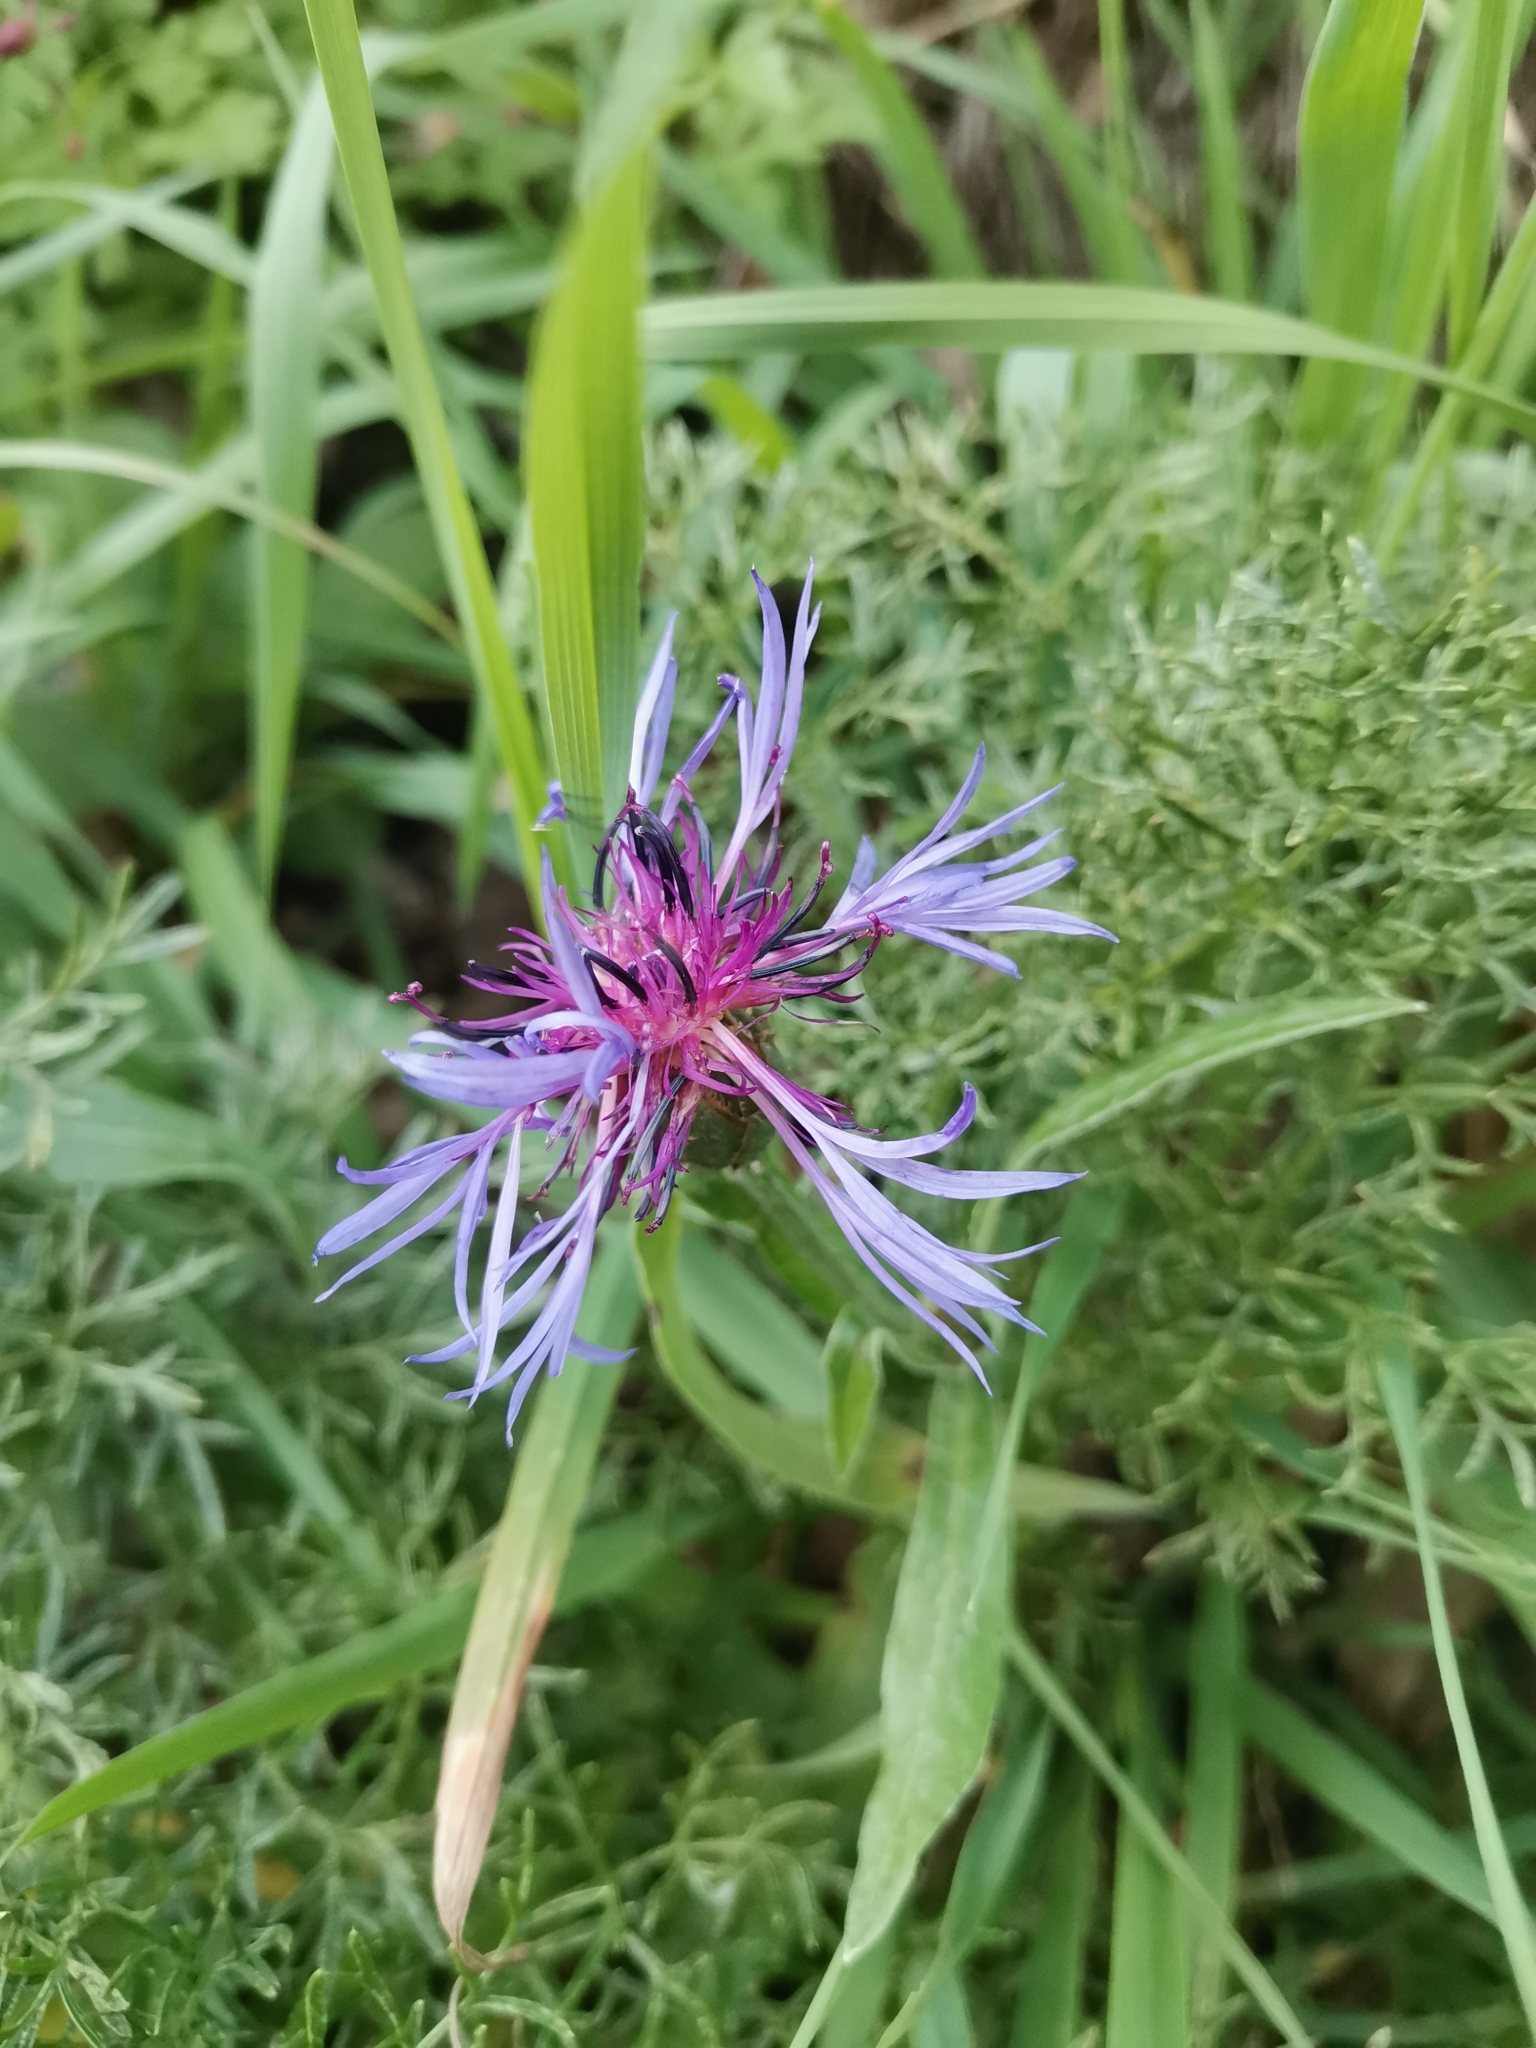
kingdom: Plantae
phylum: Tracheophyta
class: Magnoliopsida
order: Asterales
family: Asteraceae
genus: Centaurea
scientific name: Centaurea triumfettii
